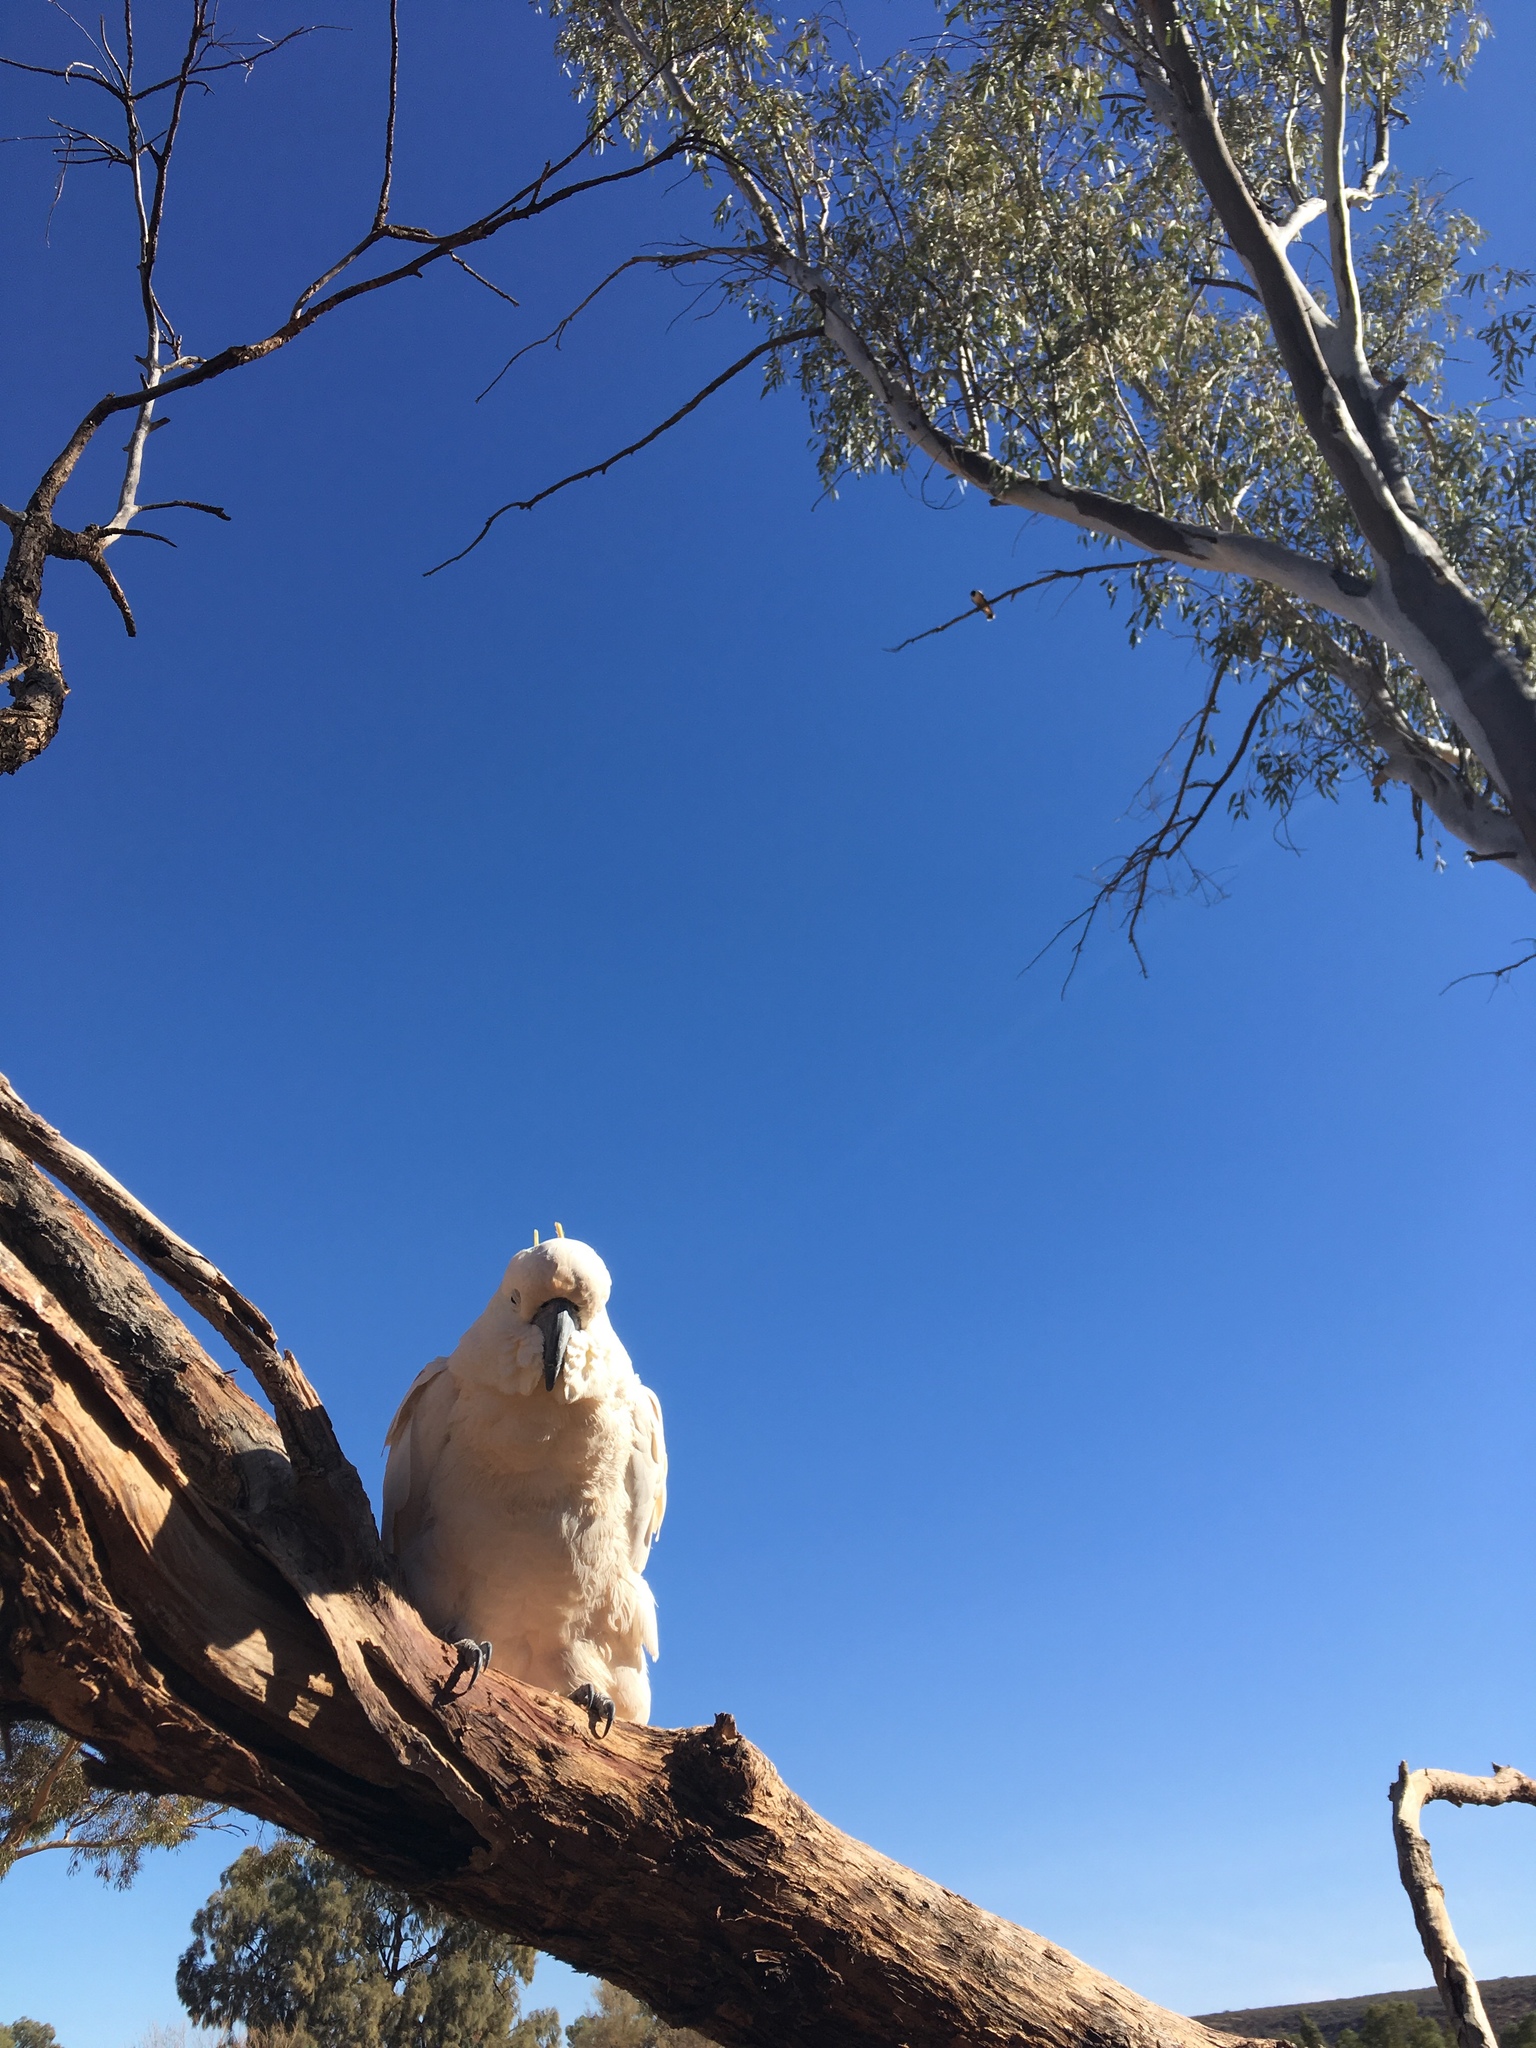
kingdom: Animalia
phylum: Chordata
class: Aves
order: Psittaciformes
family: Psittacidae
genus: Cacatua
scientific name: Cacatua galerita
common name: Sulphur-crested cockatoo
